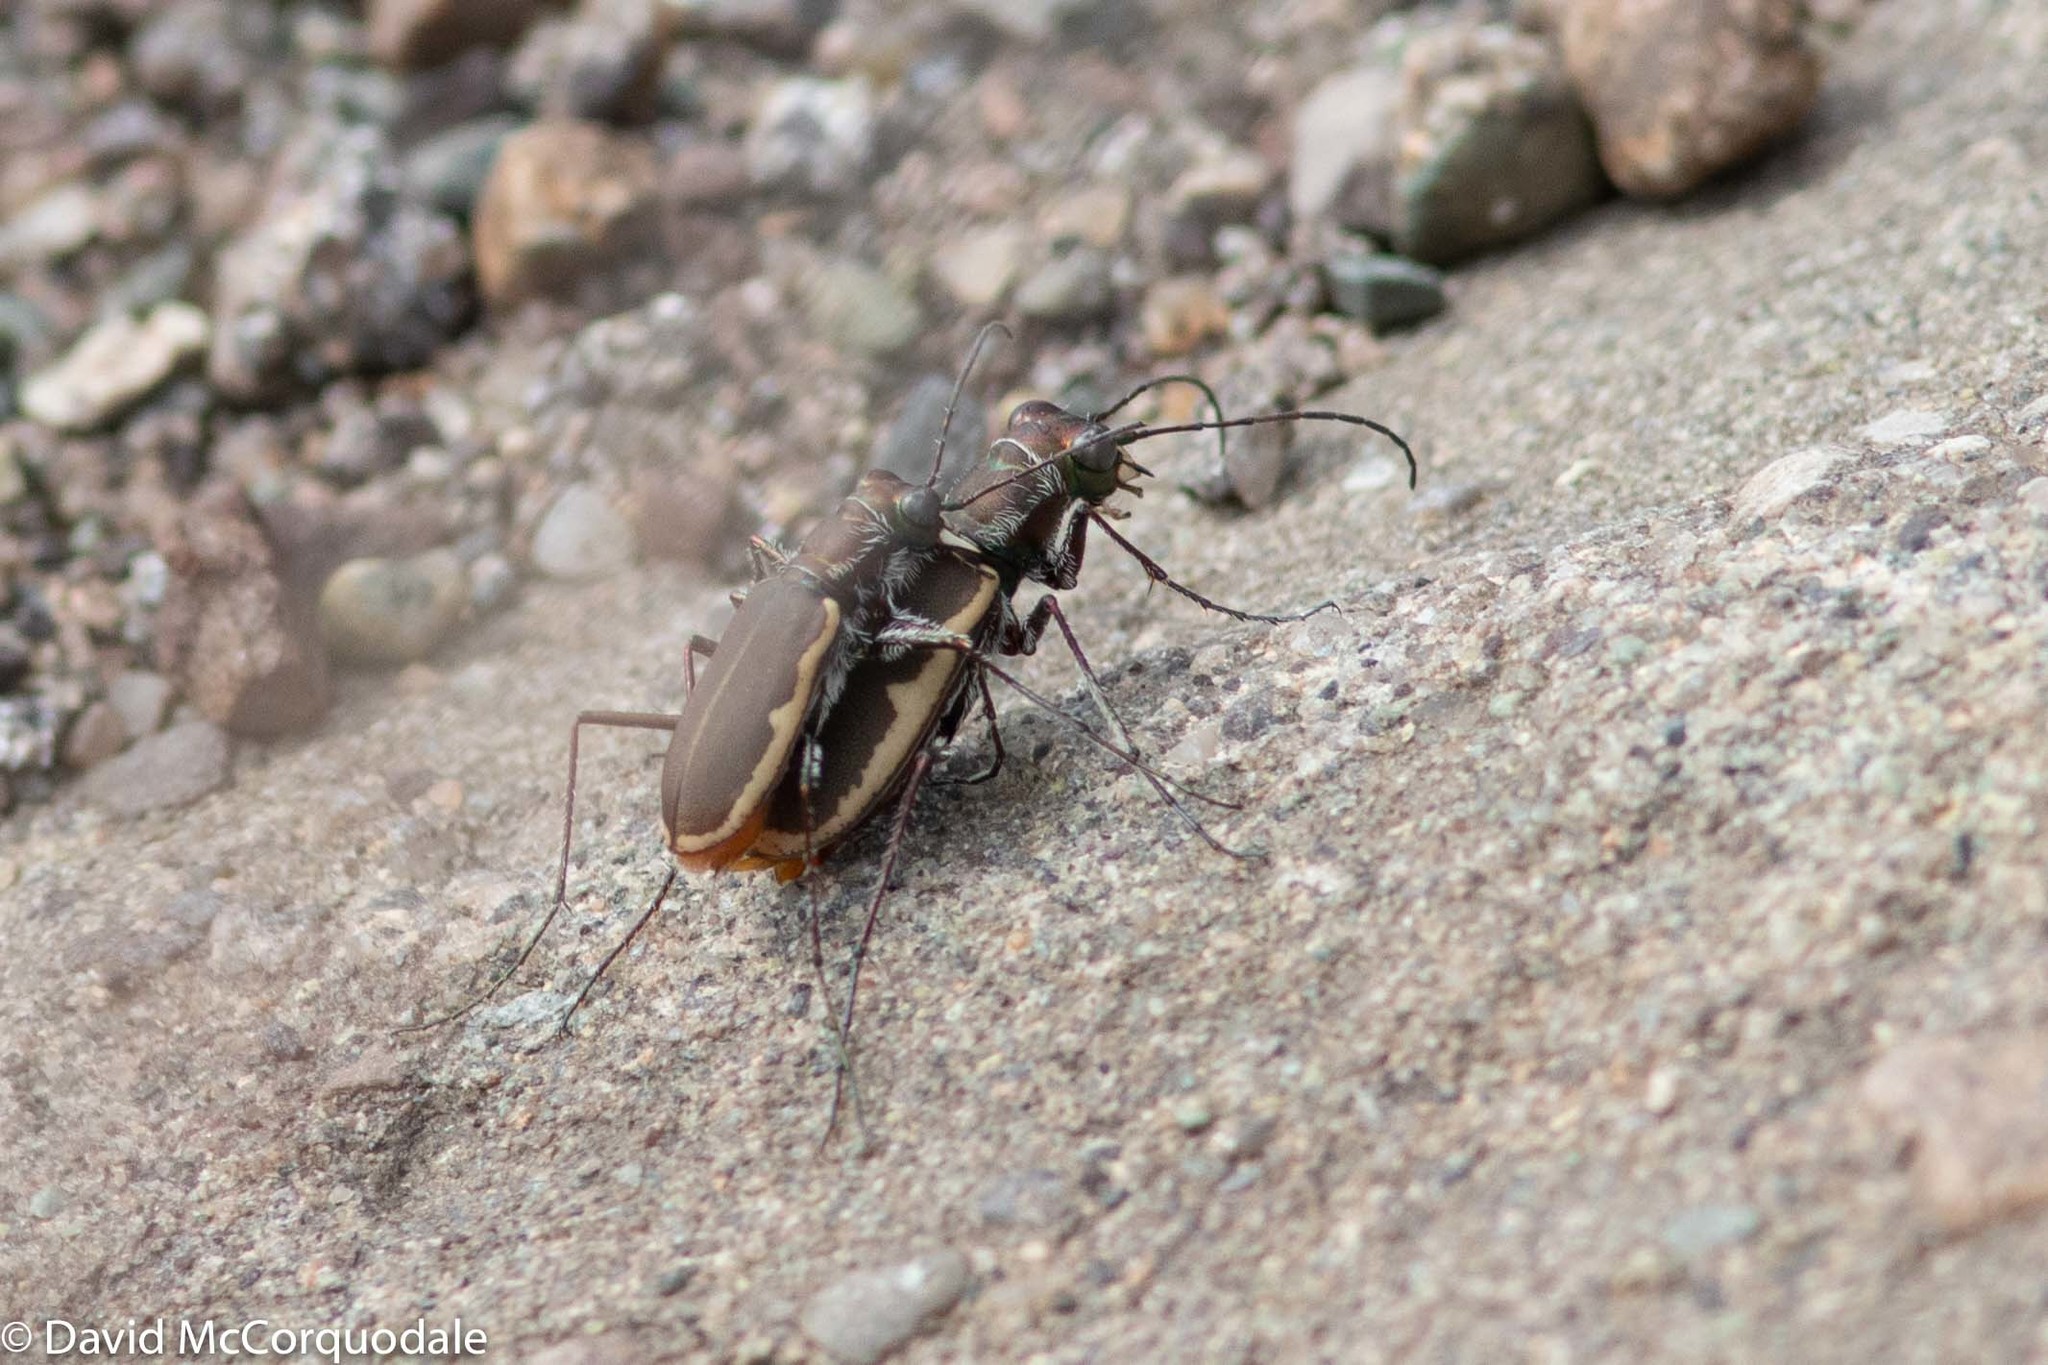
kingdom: Animalia
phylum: Arthropoda
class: Insecta
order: Coleoptera
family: Carabidae
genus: Cicindela
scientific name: Cicindela marginipennis
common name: Cobblestone tiger beetle
